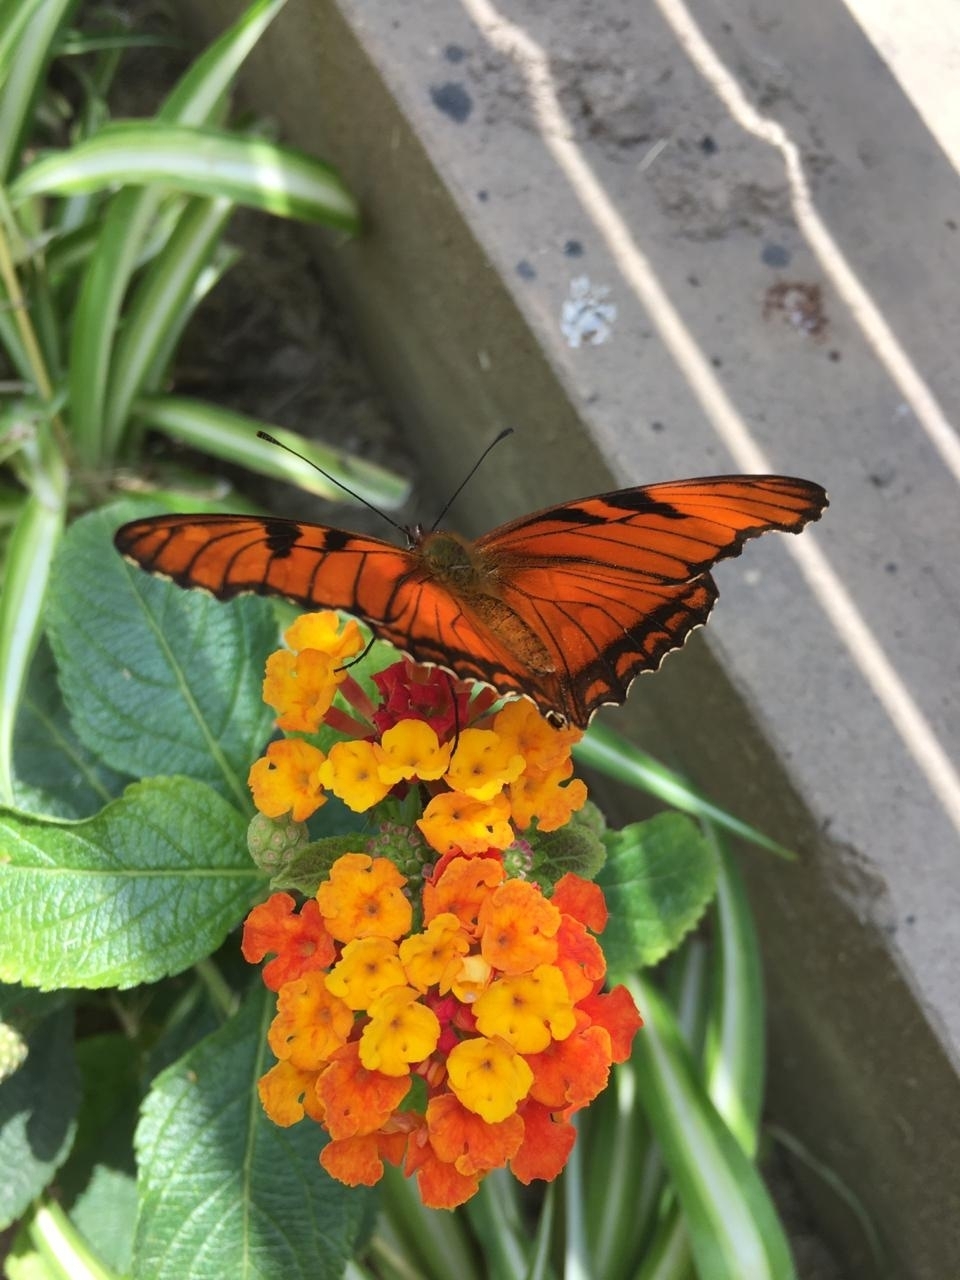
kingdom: Animalia
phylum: Arthropoda
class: Insecta
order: Lepidoptera
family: Nymphalidae
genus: Dione
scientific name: Dione juno
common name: Juno silverspot
